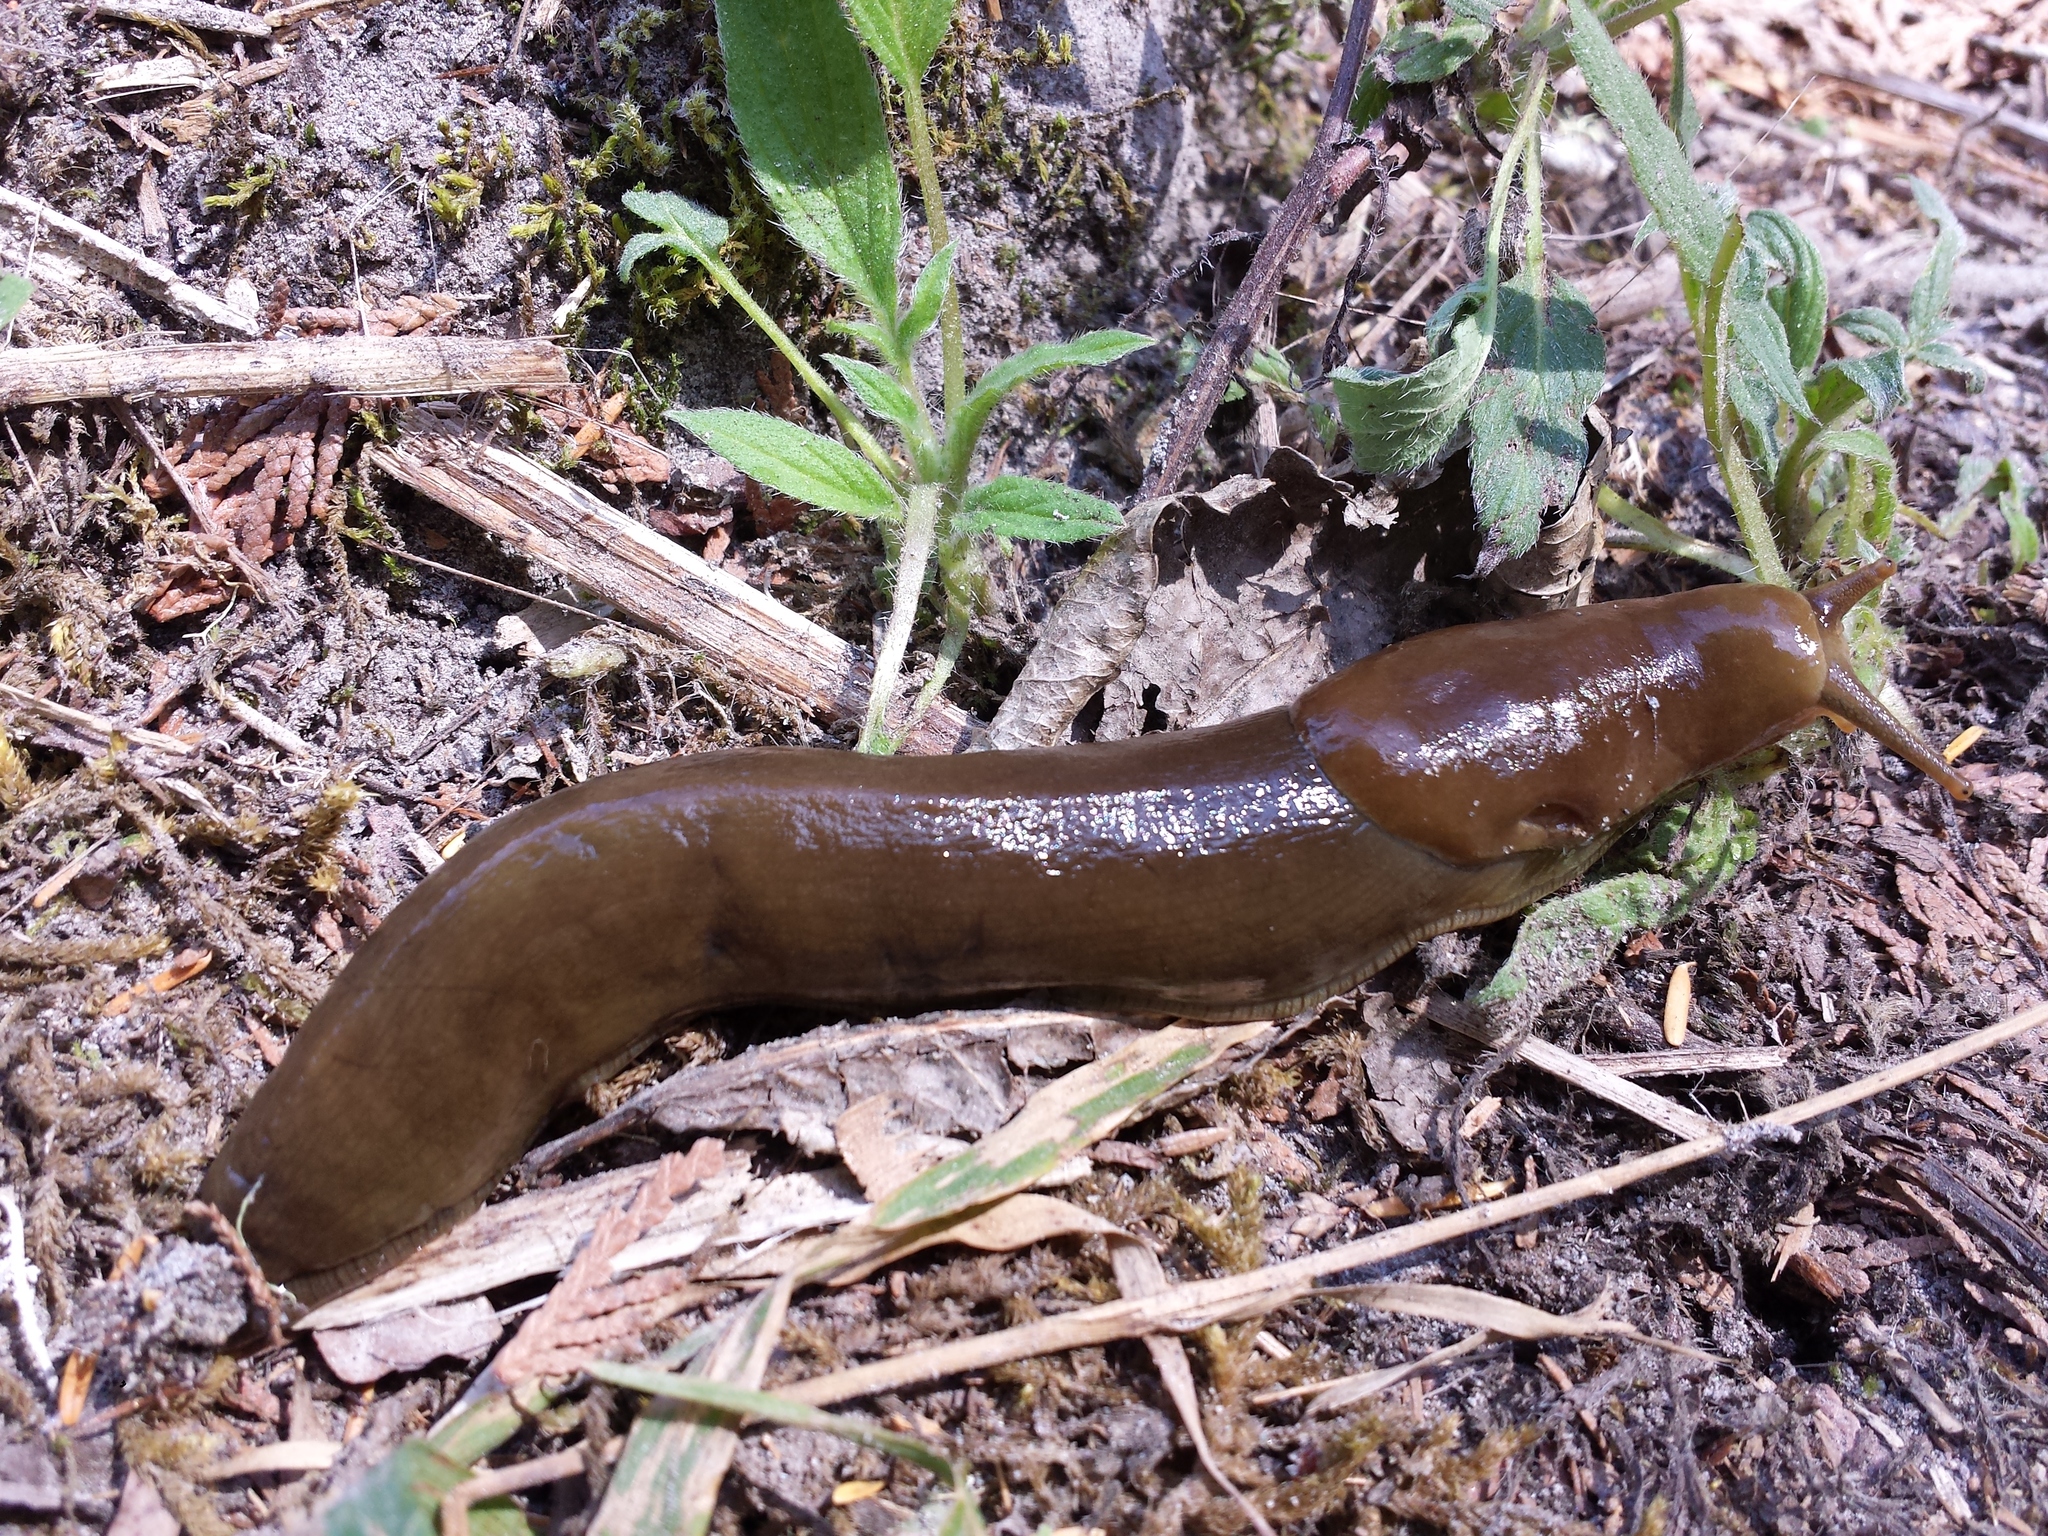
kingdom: Animalia
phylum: Mollusca
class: Gastropoda
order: Stylommatophora
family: Ariolimacidae
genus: Ariolimax
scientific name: Ariolimax columbianus
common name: Pacific banana slug
